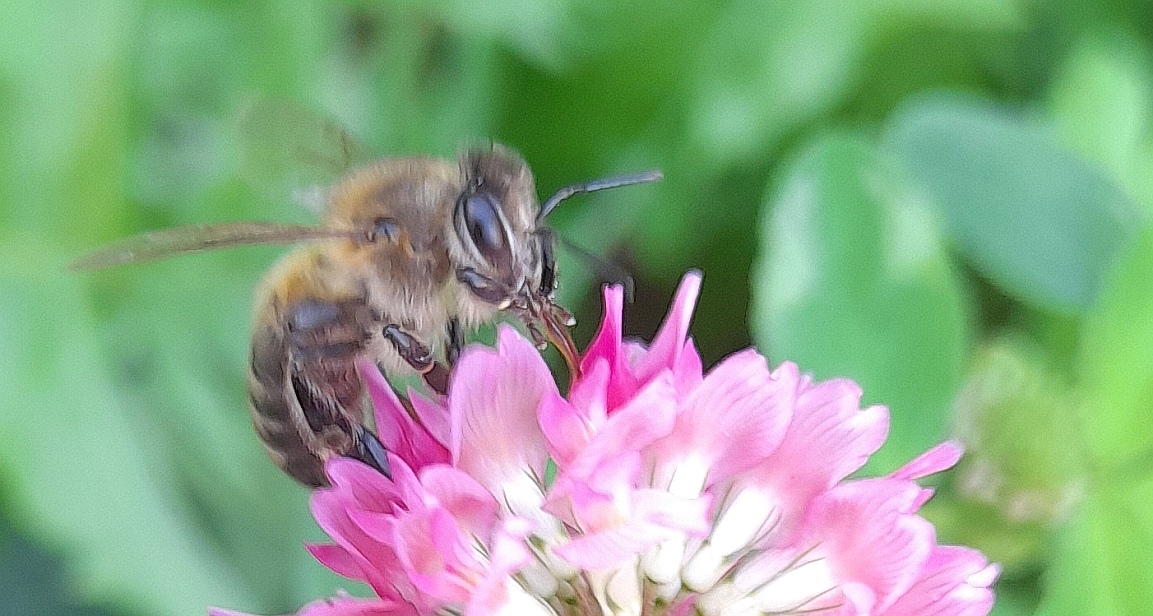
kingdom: Animalia
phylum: Arthropoda
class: Insecta
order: Hymenoptera
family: Apidae
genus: Apis
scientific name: Apis mellifera
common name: Honey bee
